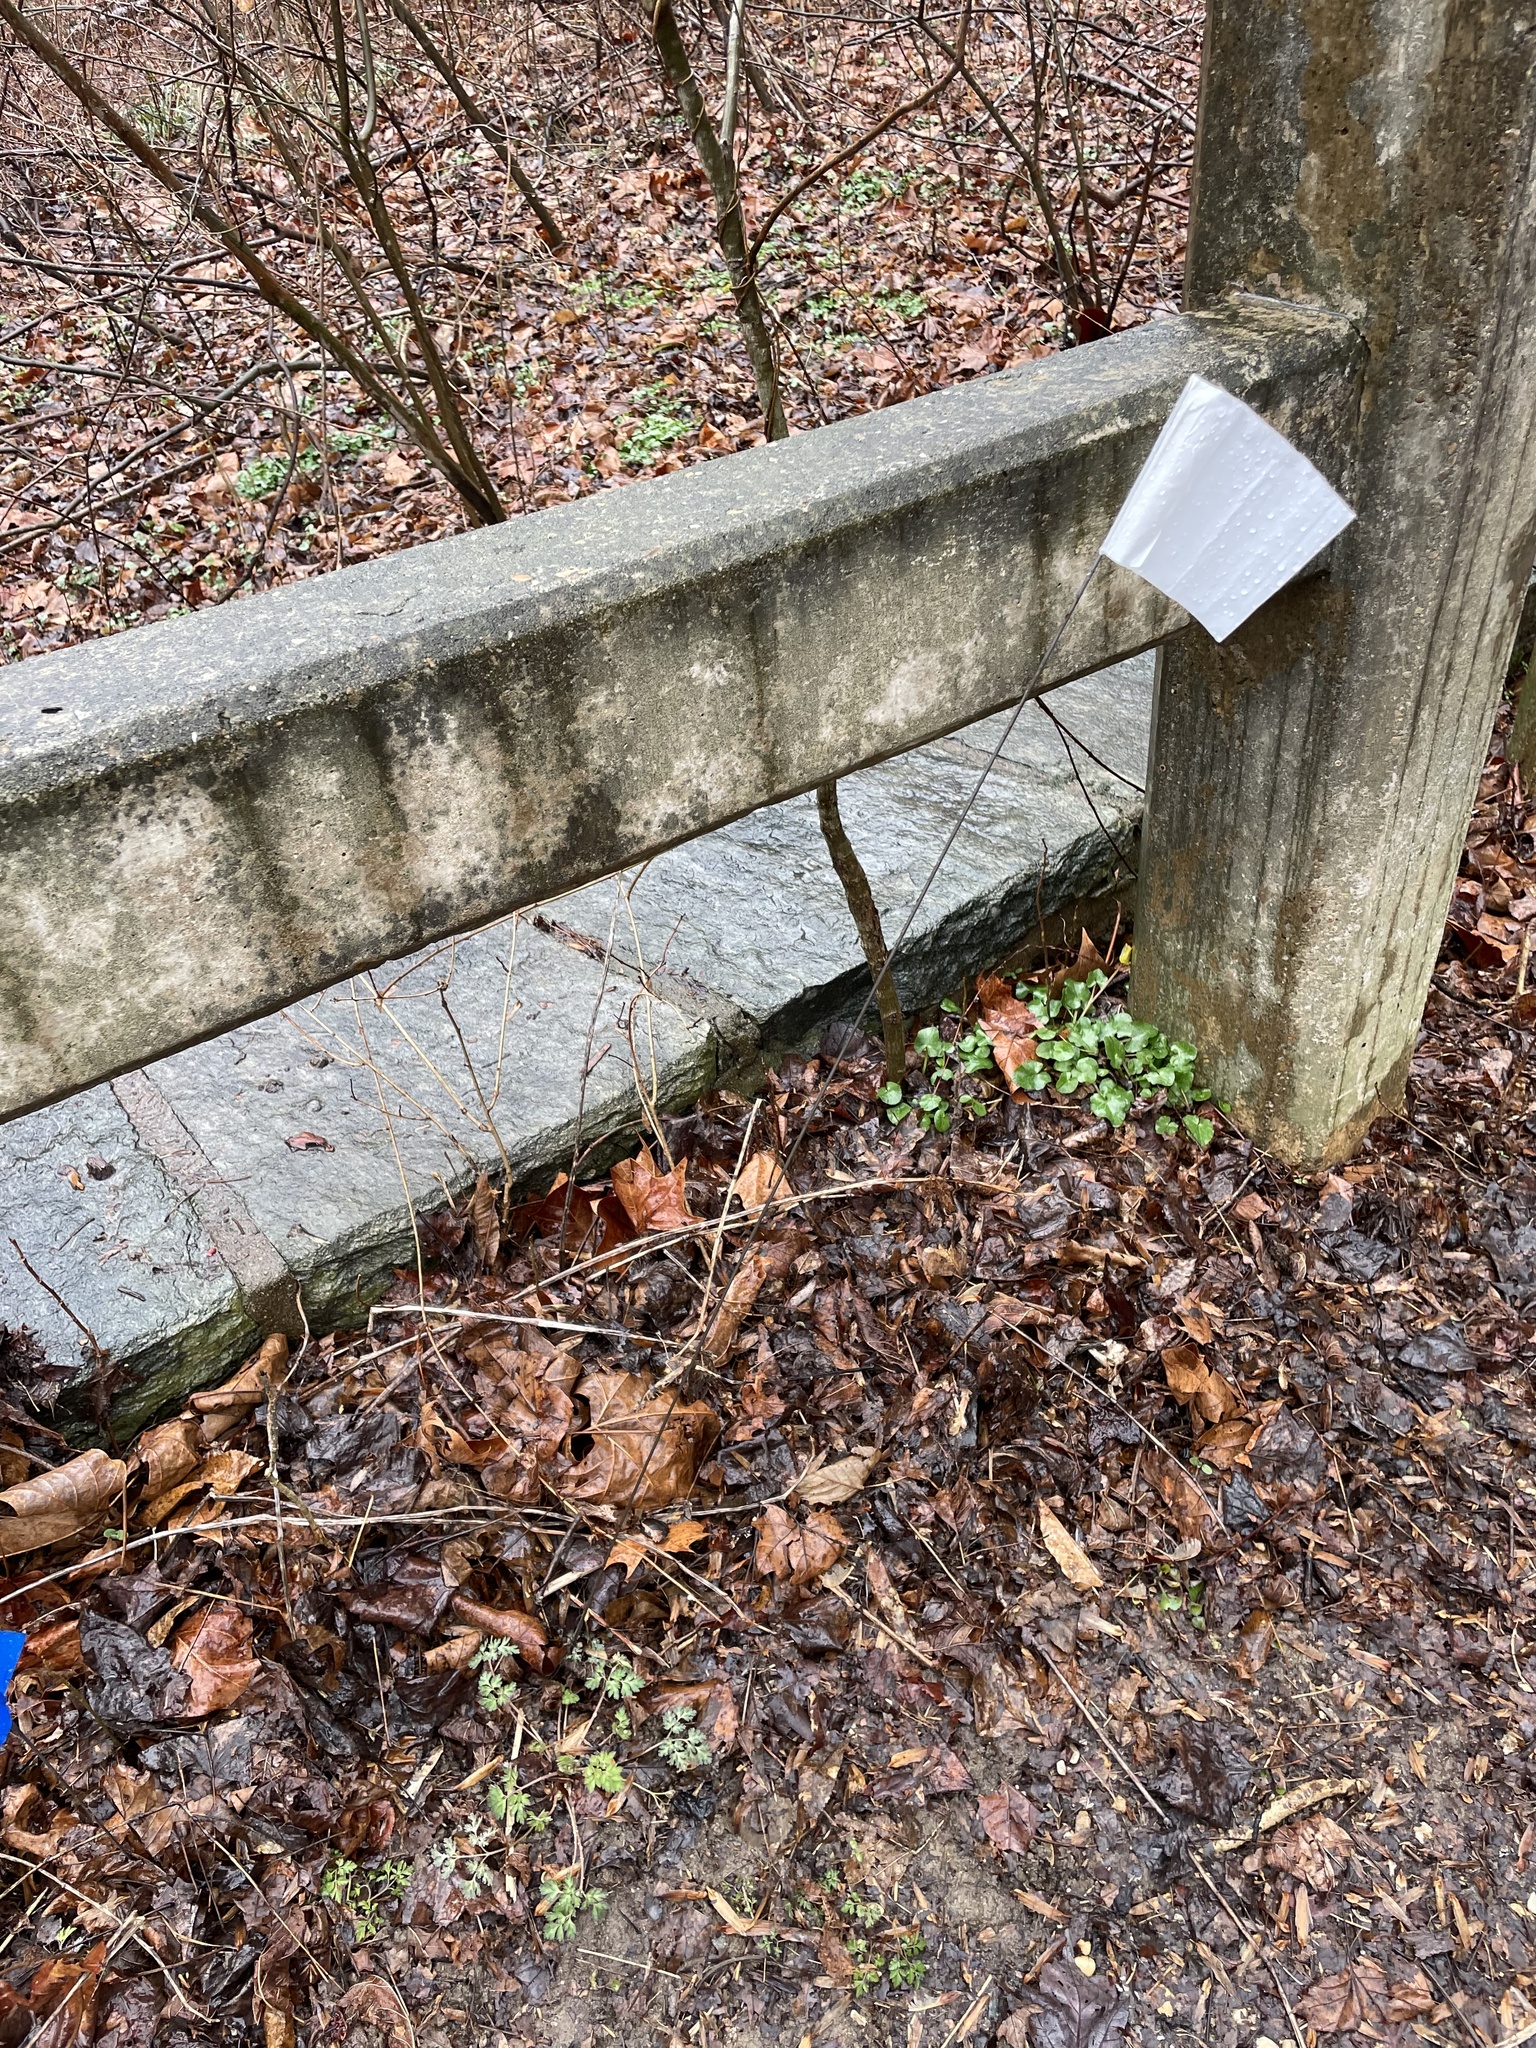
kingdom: Plantae
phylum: Tracheophyta
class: Magnoliopsida
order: Ranunculales
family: Papaveraceae
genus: Corydalis
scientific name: Corydalis incisa
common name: Incised fumewort
